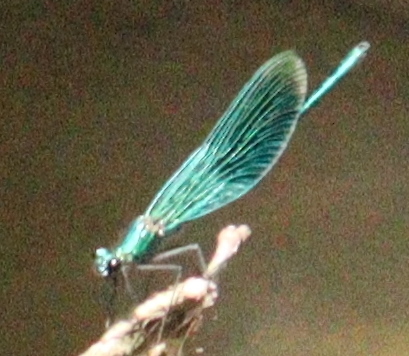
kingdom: Animalia
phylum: Arthropoda
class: Insecta
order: Odonata
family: Calopterygidae
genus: Calopteryx
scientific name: Calopteryx splendens
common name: Banded demoiselle
